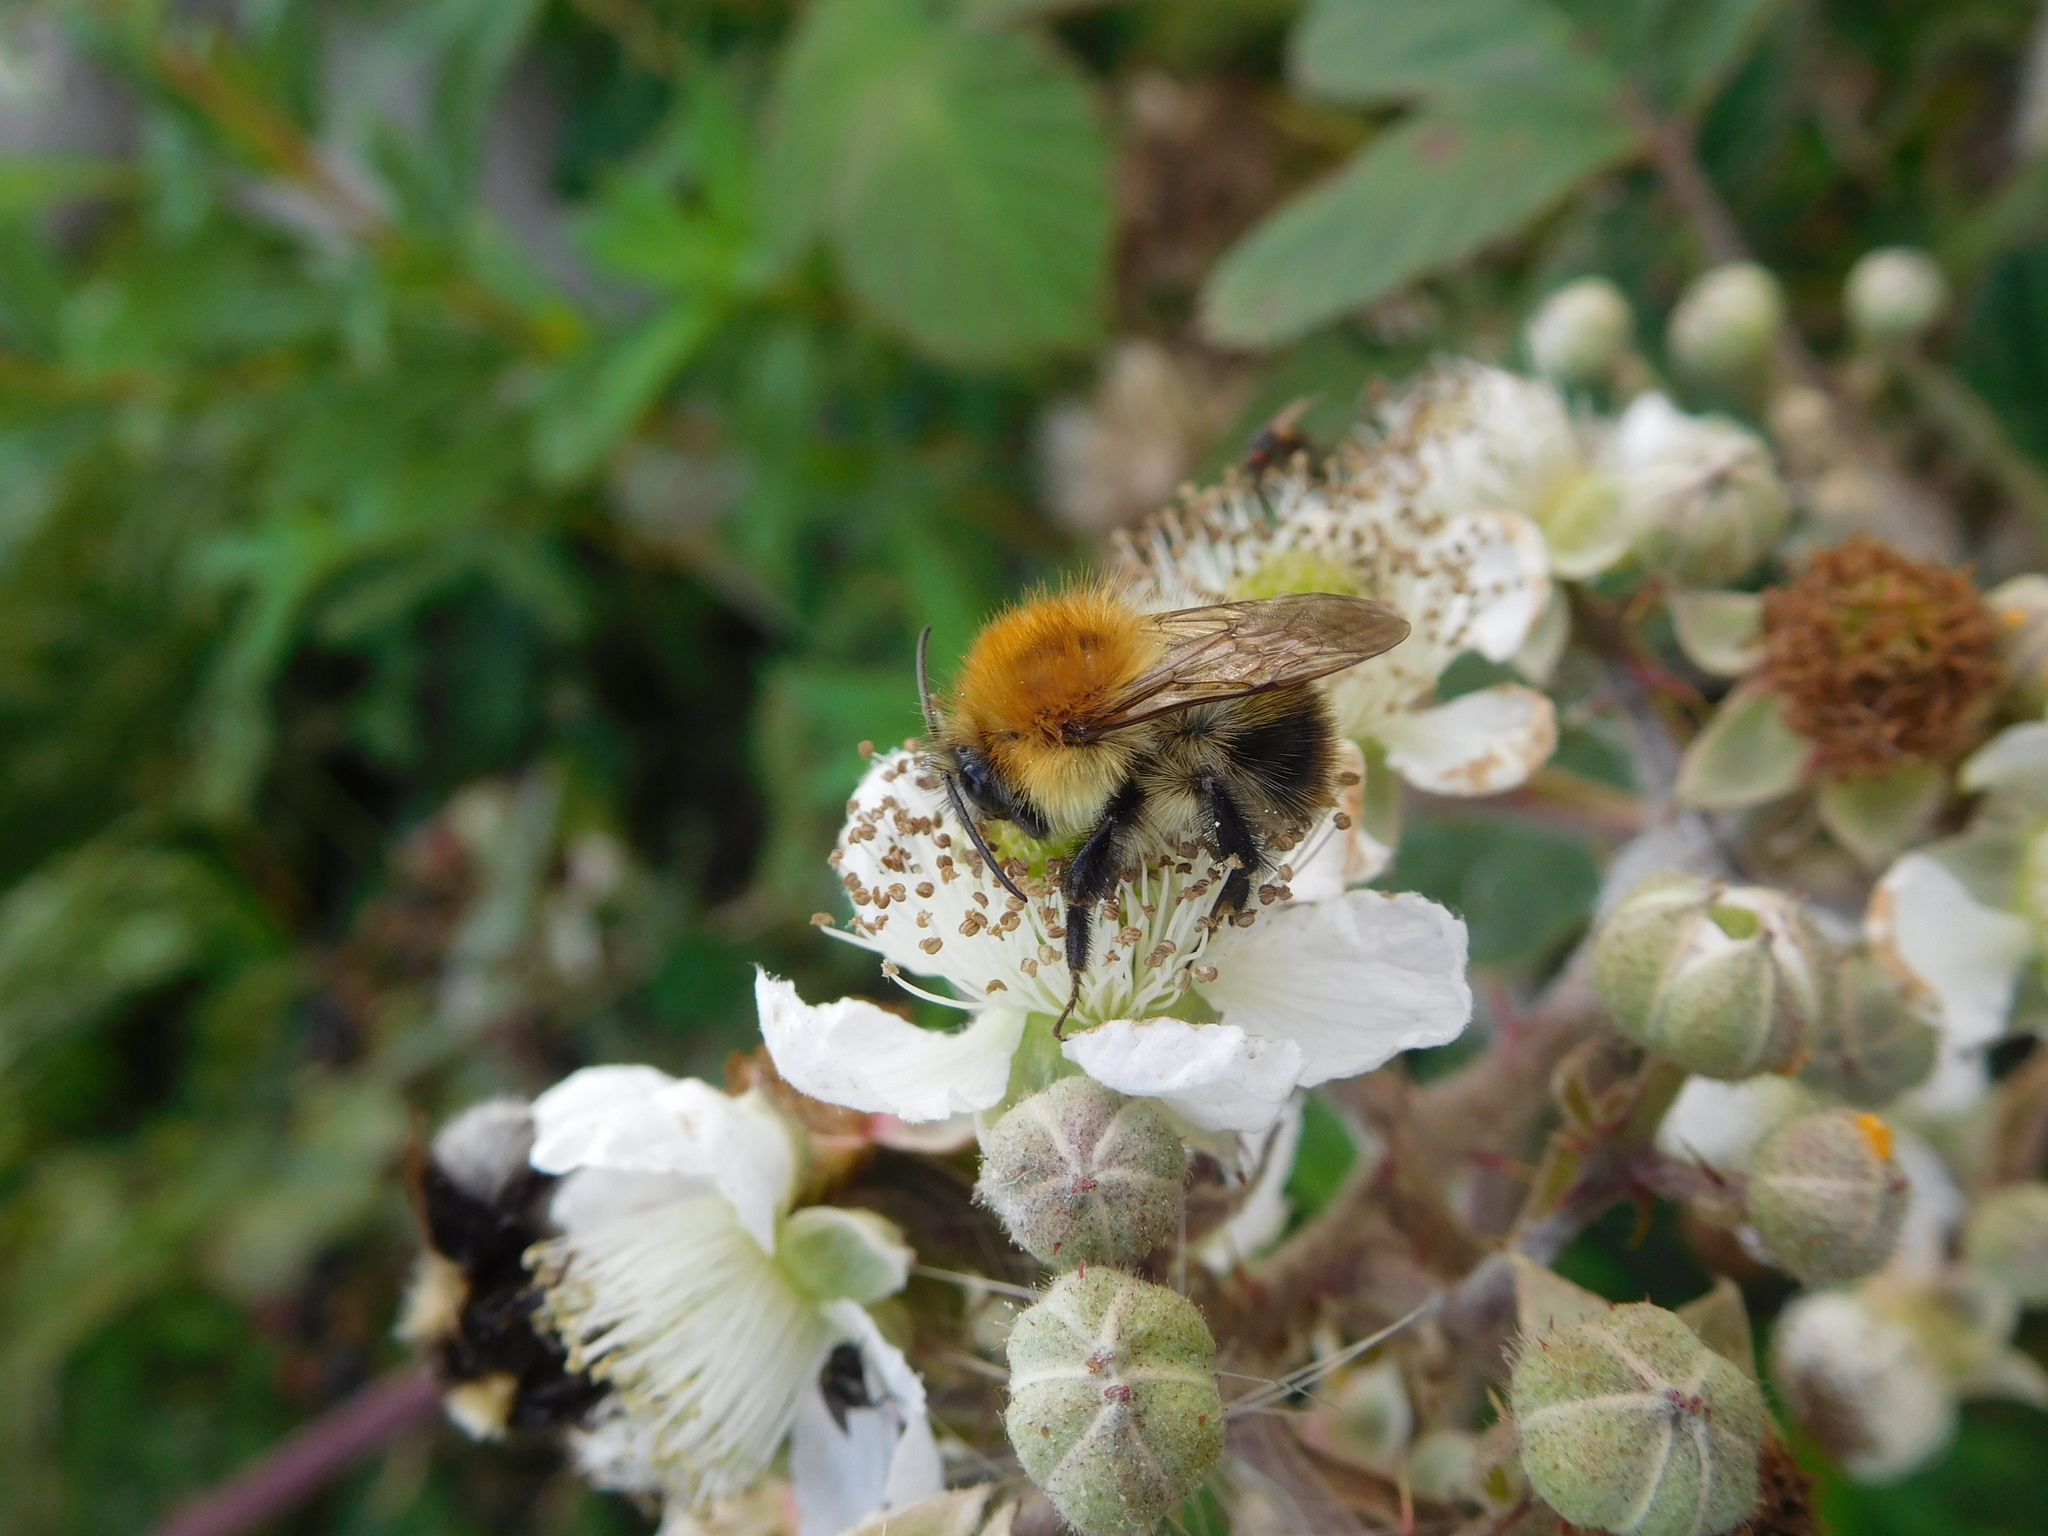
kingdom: Animalia
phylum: Arthropoda
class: Insecta
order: Hymenoptera
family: Apidae
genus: Bombus
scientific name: Bombus pascuorum
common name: Common carder bee
